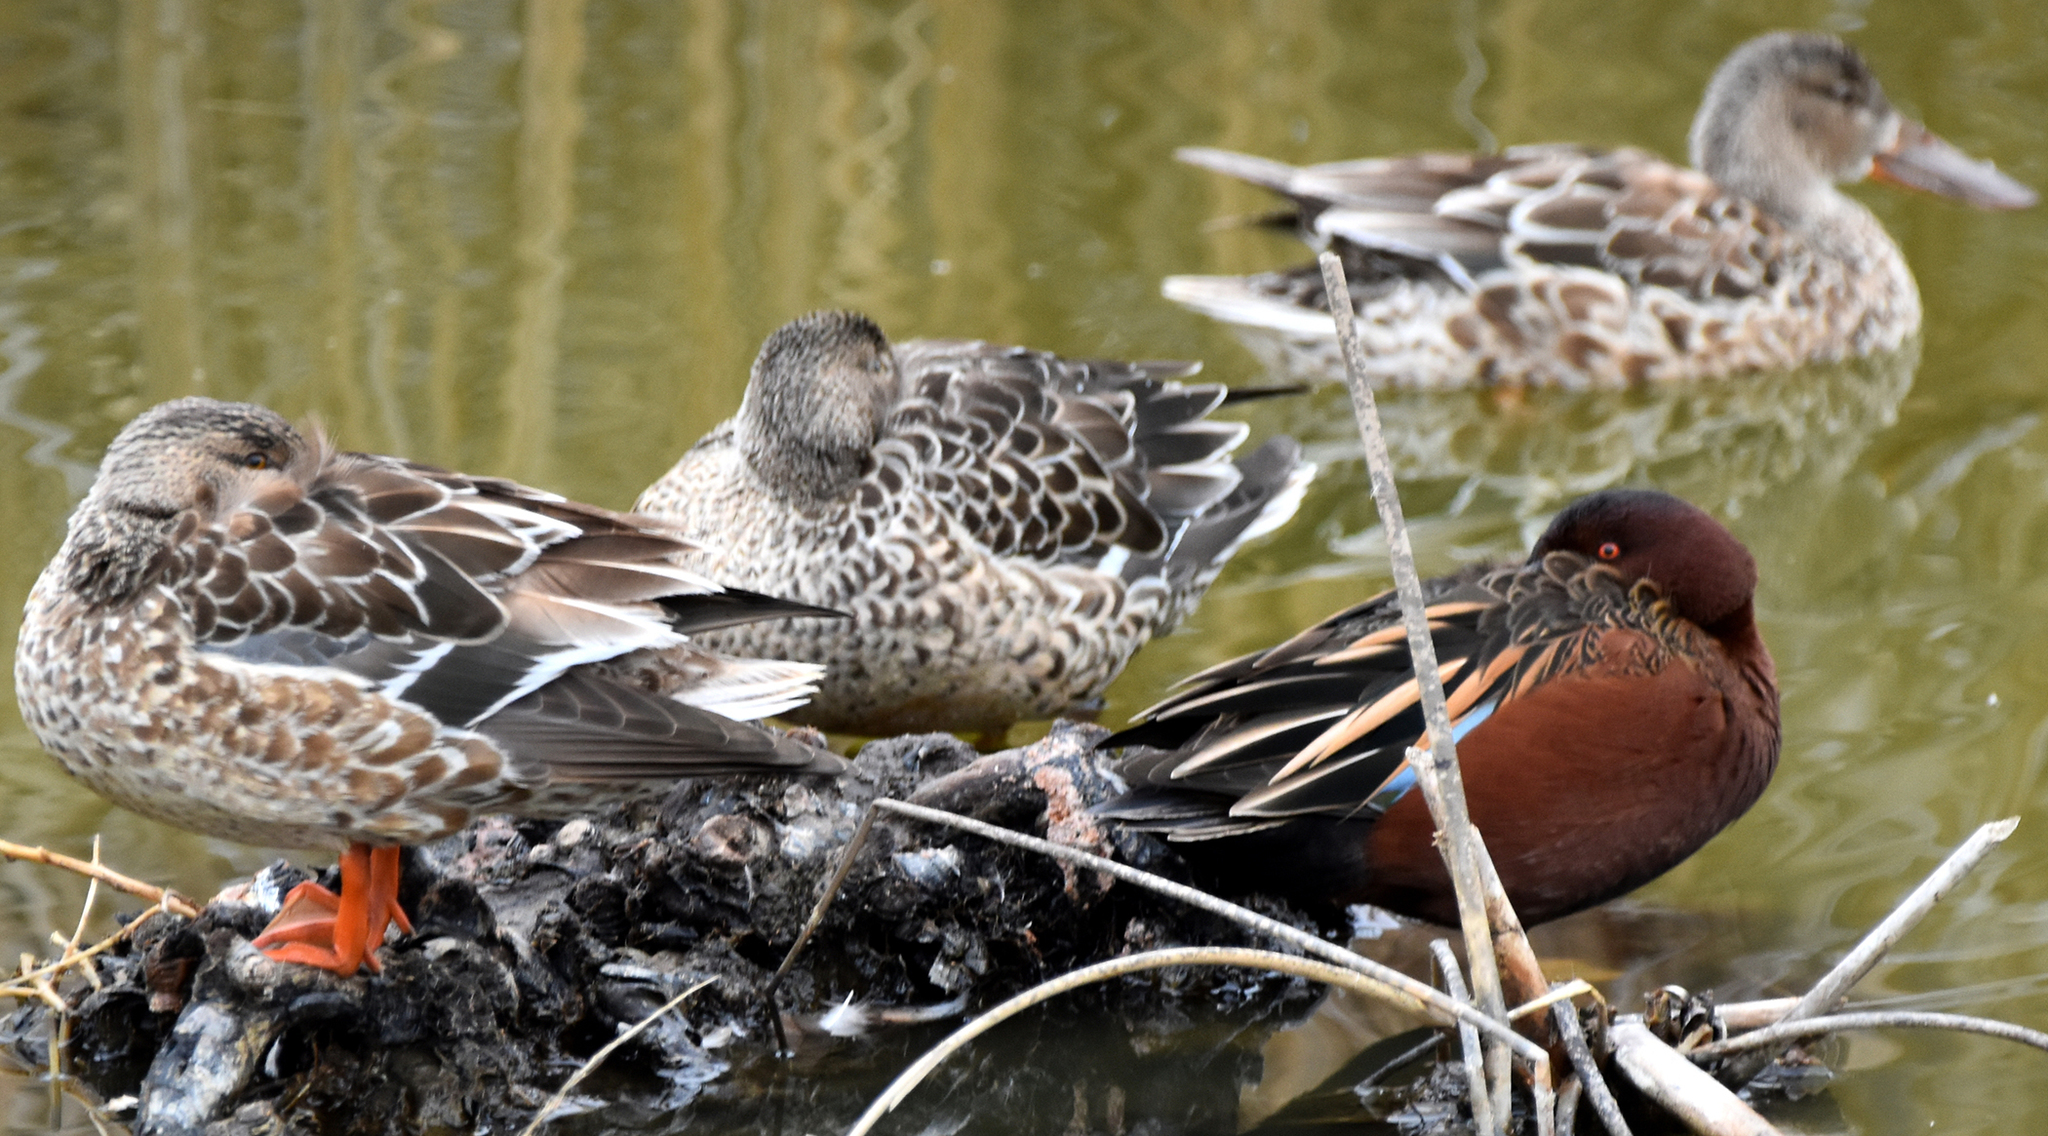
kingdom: Animalia
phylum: Chordata
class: Aves
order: Anseriformes
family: Anatidae
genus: Spatula
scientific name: Spatula cyanoptera
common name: Cinnamon teal
